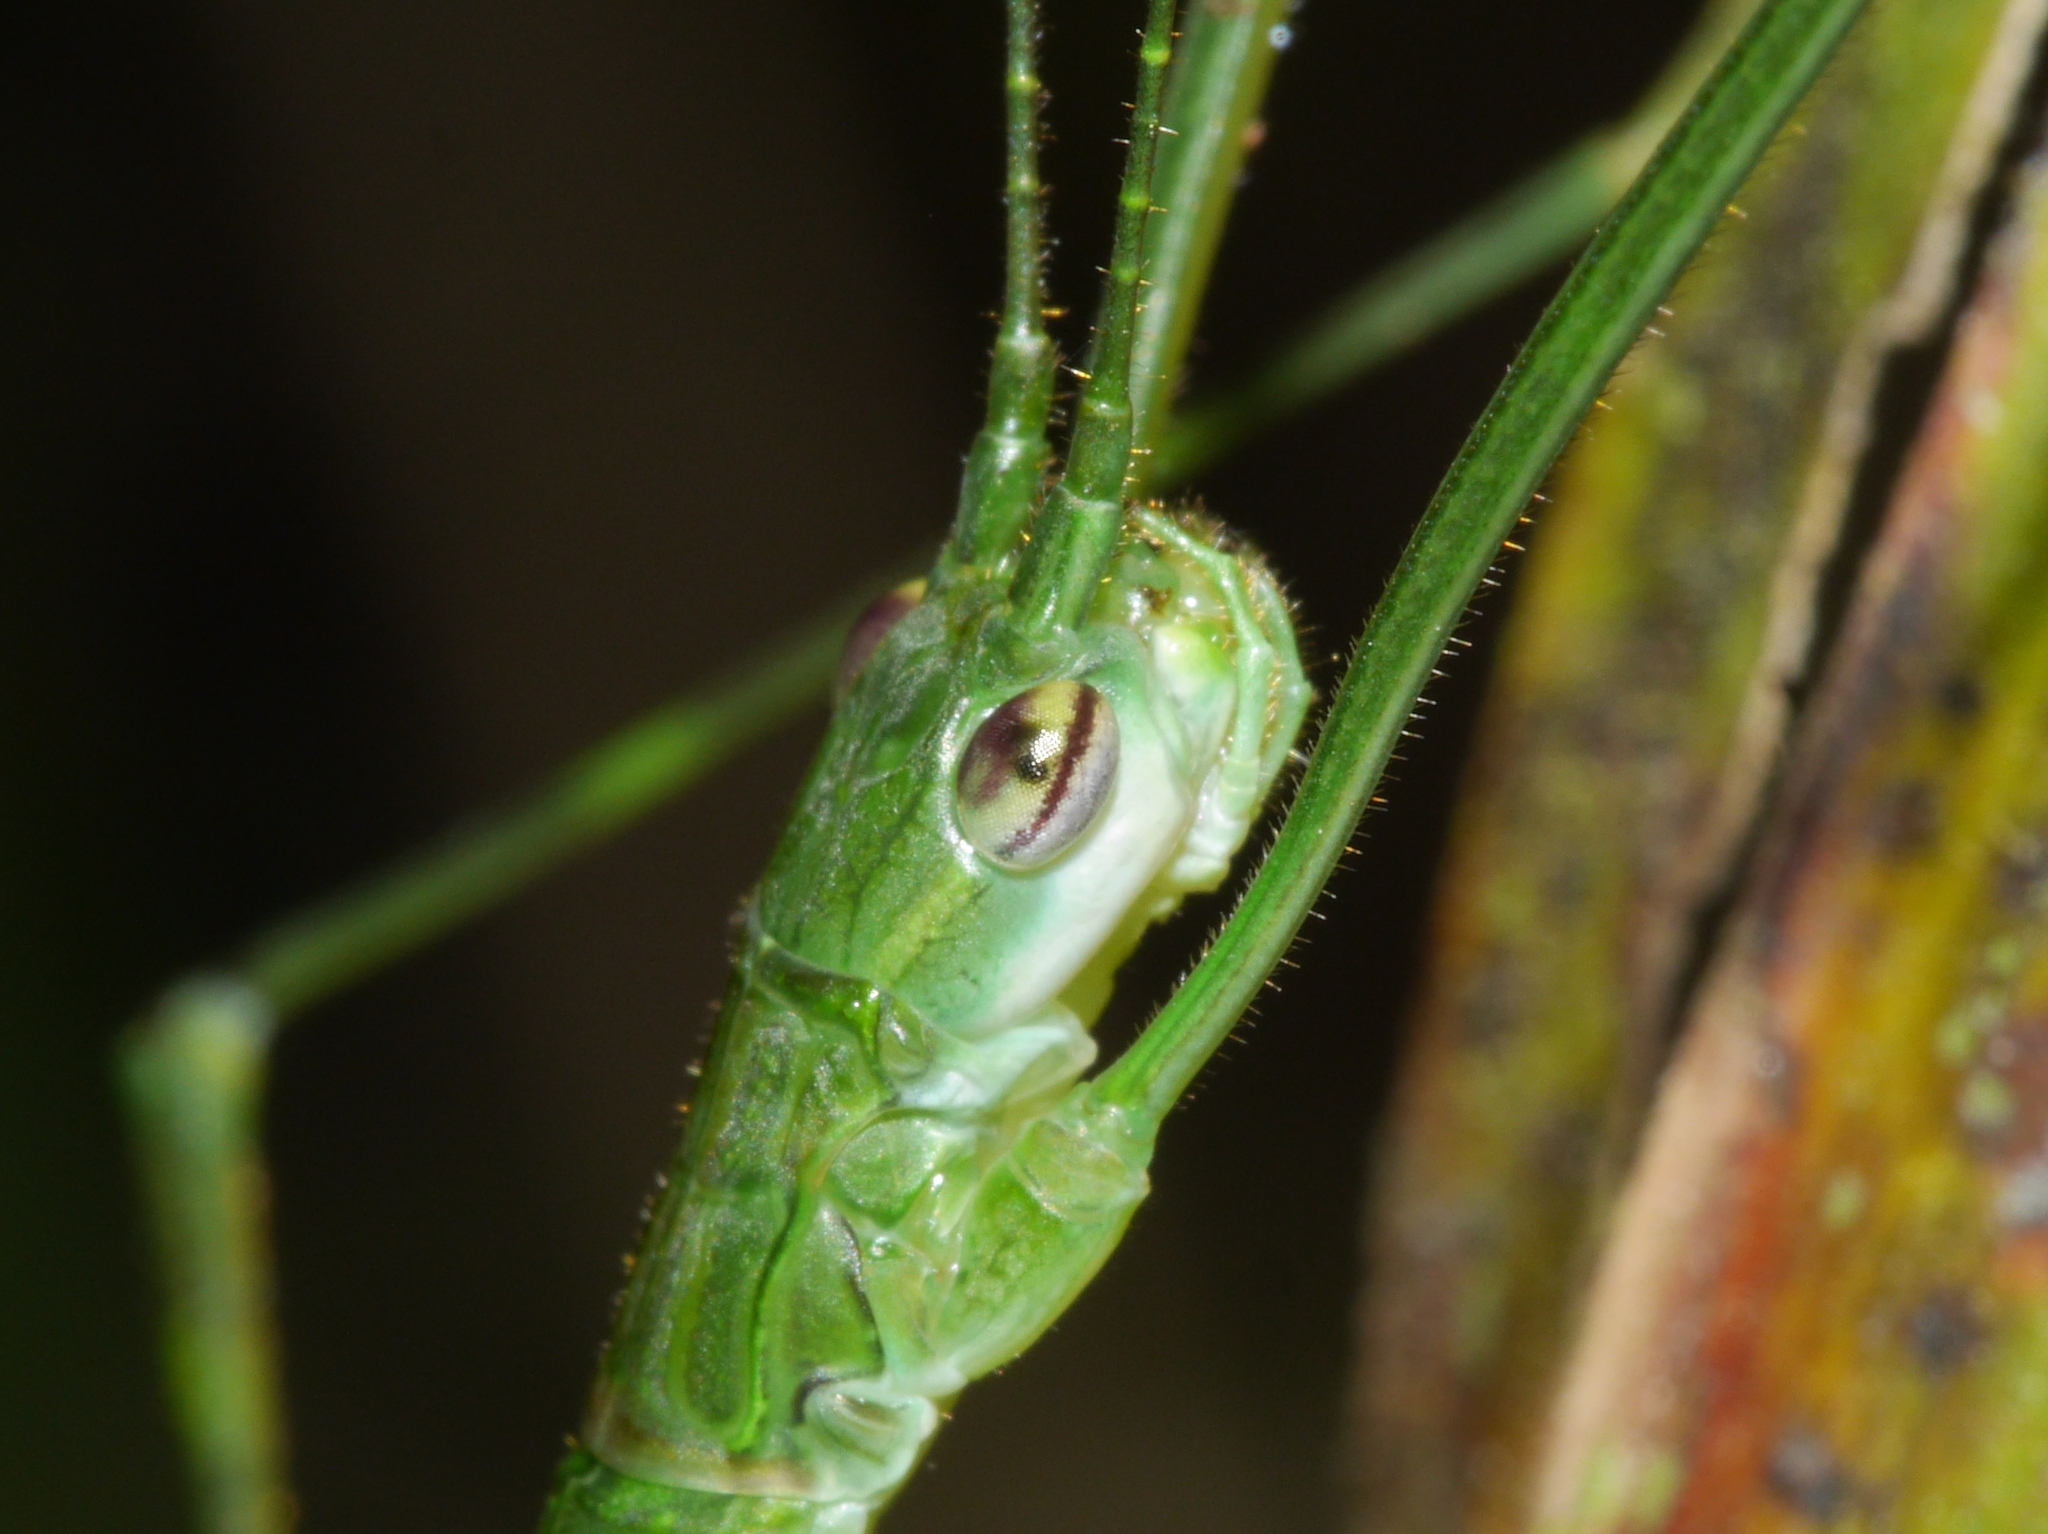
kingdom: Animalia
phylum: Arthropoda
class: Insecta
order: Phasmida
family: Lonchodidae
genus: Necroscia
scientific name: Necroscia ingenua
